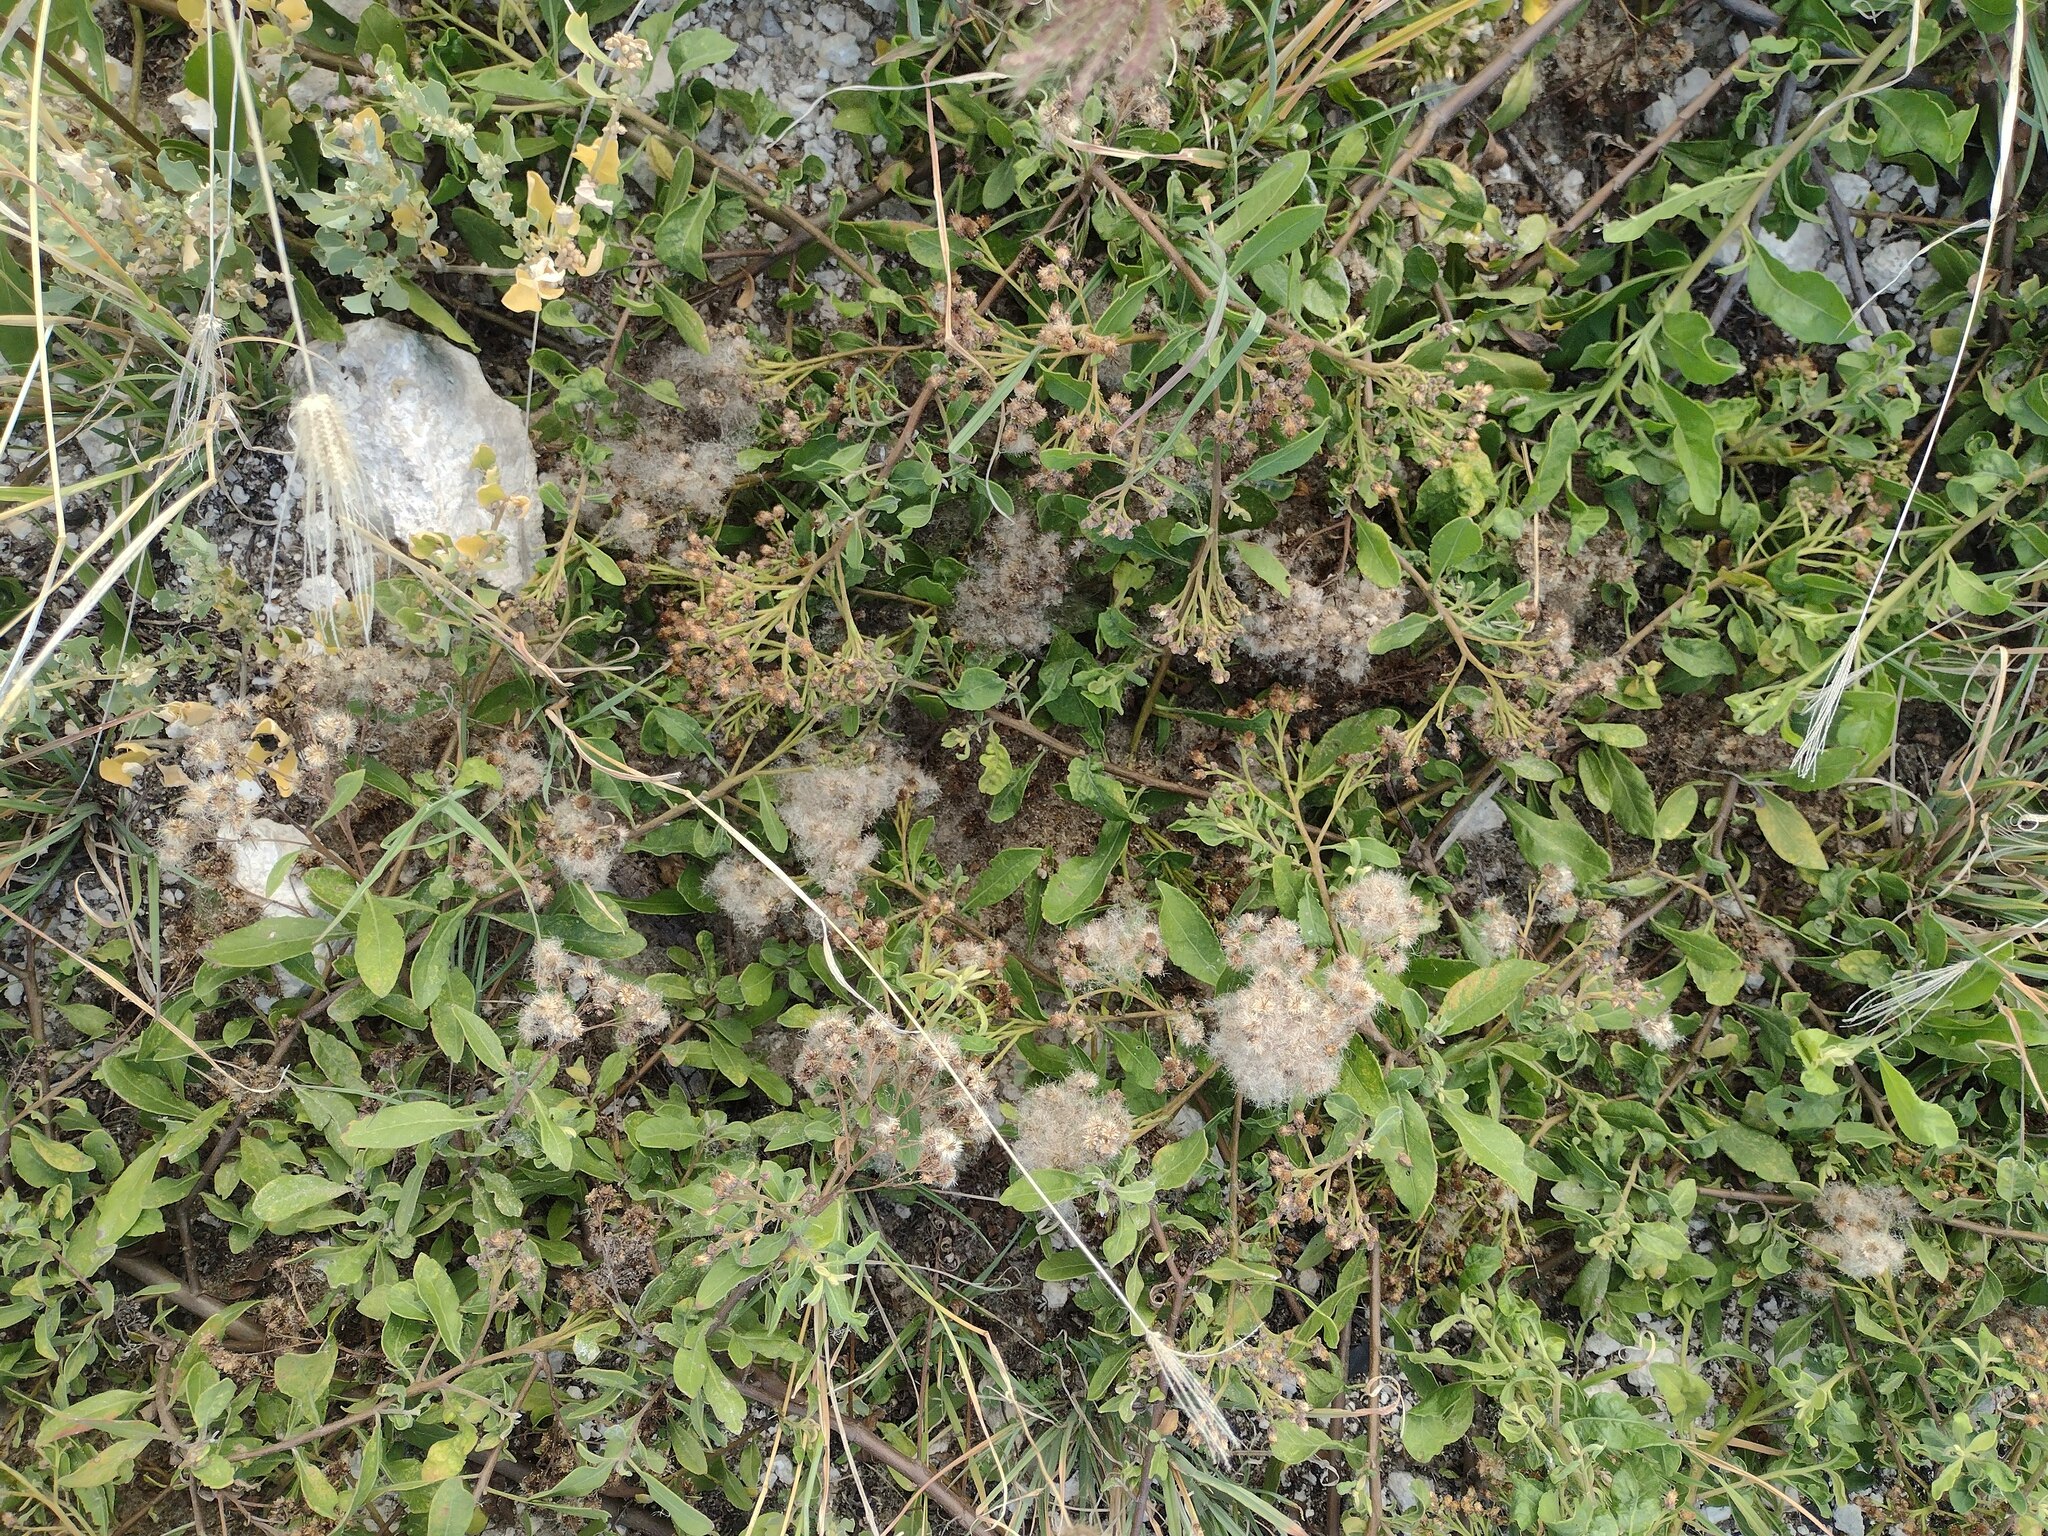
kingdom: Plantae
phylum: Tracheophyta
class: Magnoliopsida
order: Asterales
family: Asteraceae
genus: Pluchea
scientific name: Pluchea fosbergii
